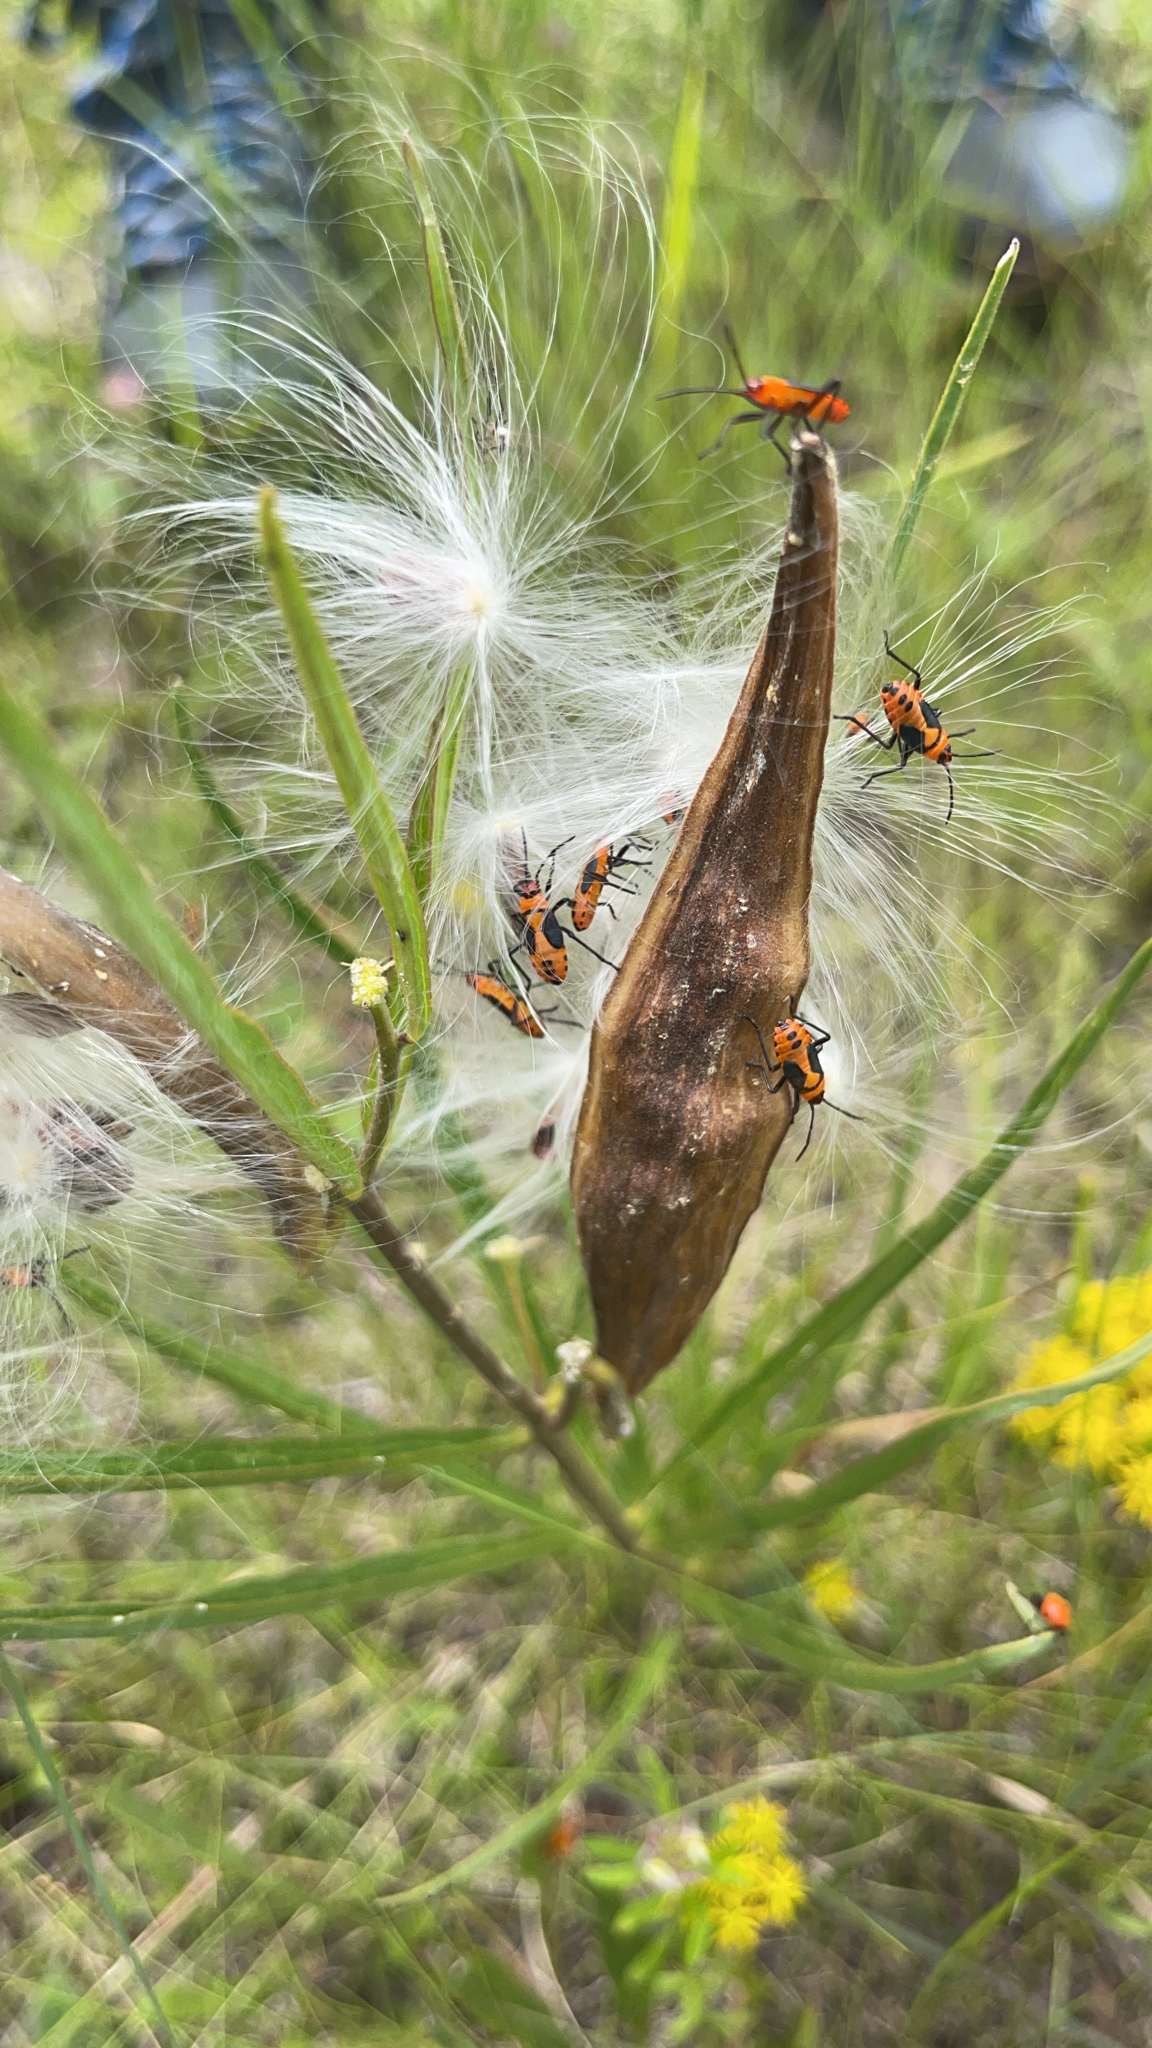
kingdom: Animalia
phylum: Arthropoda
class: Insecta
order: Hemiptera
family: Lygaeidae
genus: Oncopeltus
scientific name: Oncopeltus fasciatus
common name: Large milkweed bug
